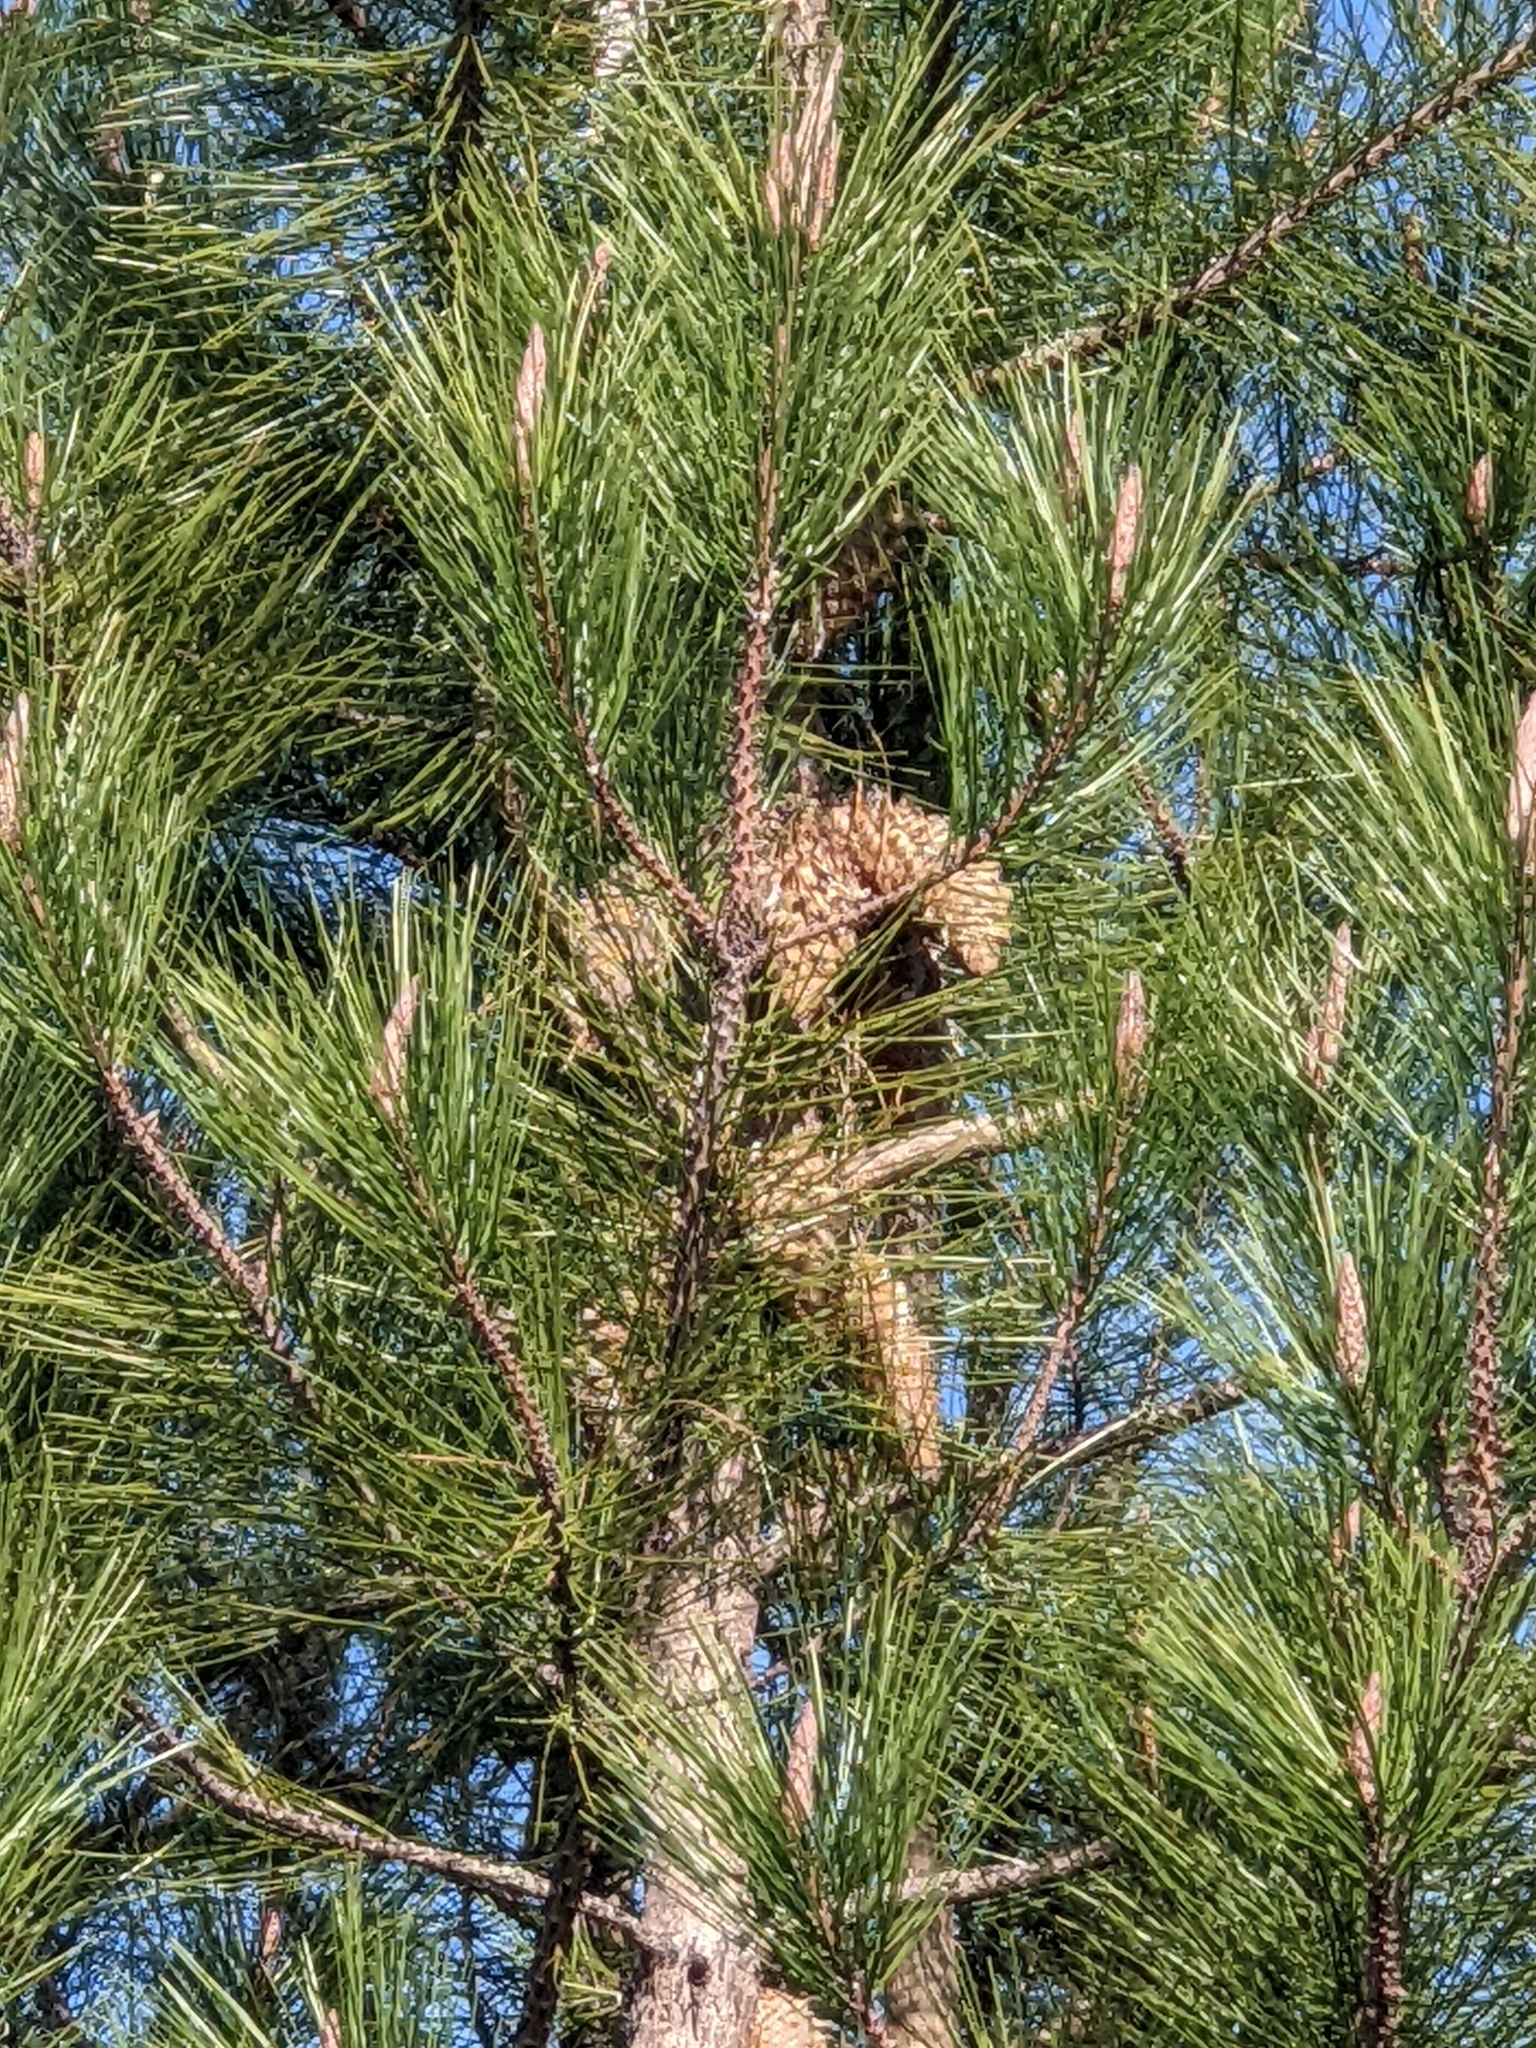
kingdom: Plantae
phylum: Tracheophyta
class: Pinopsida
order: Pinales
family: Pinaceae
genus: Pinus
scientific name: Pinus attenuata
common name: Knobcone pine
